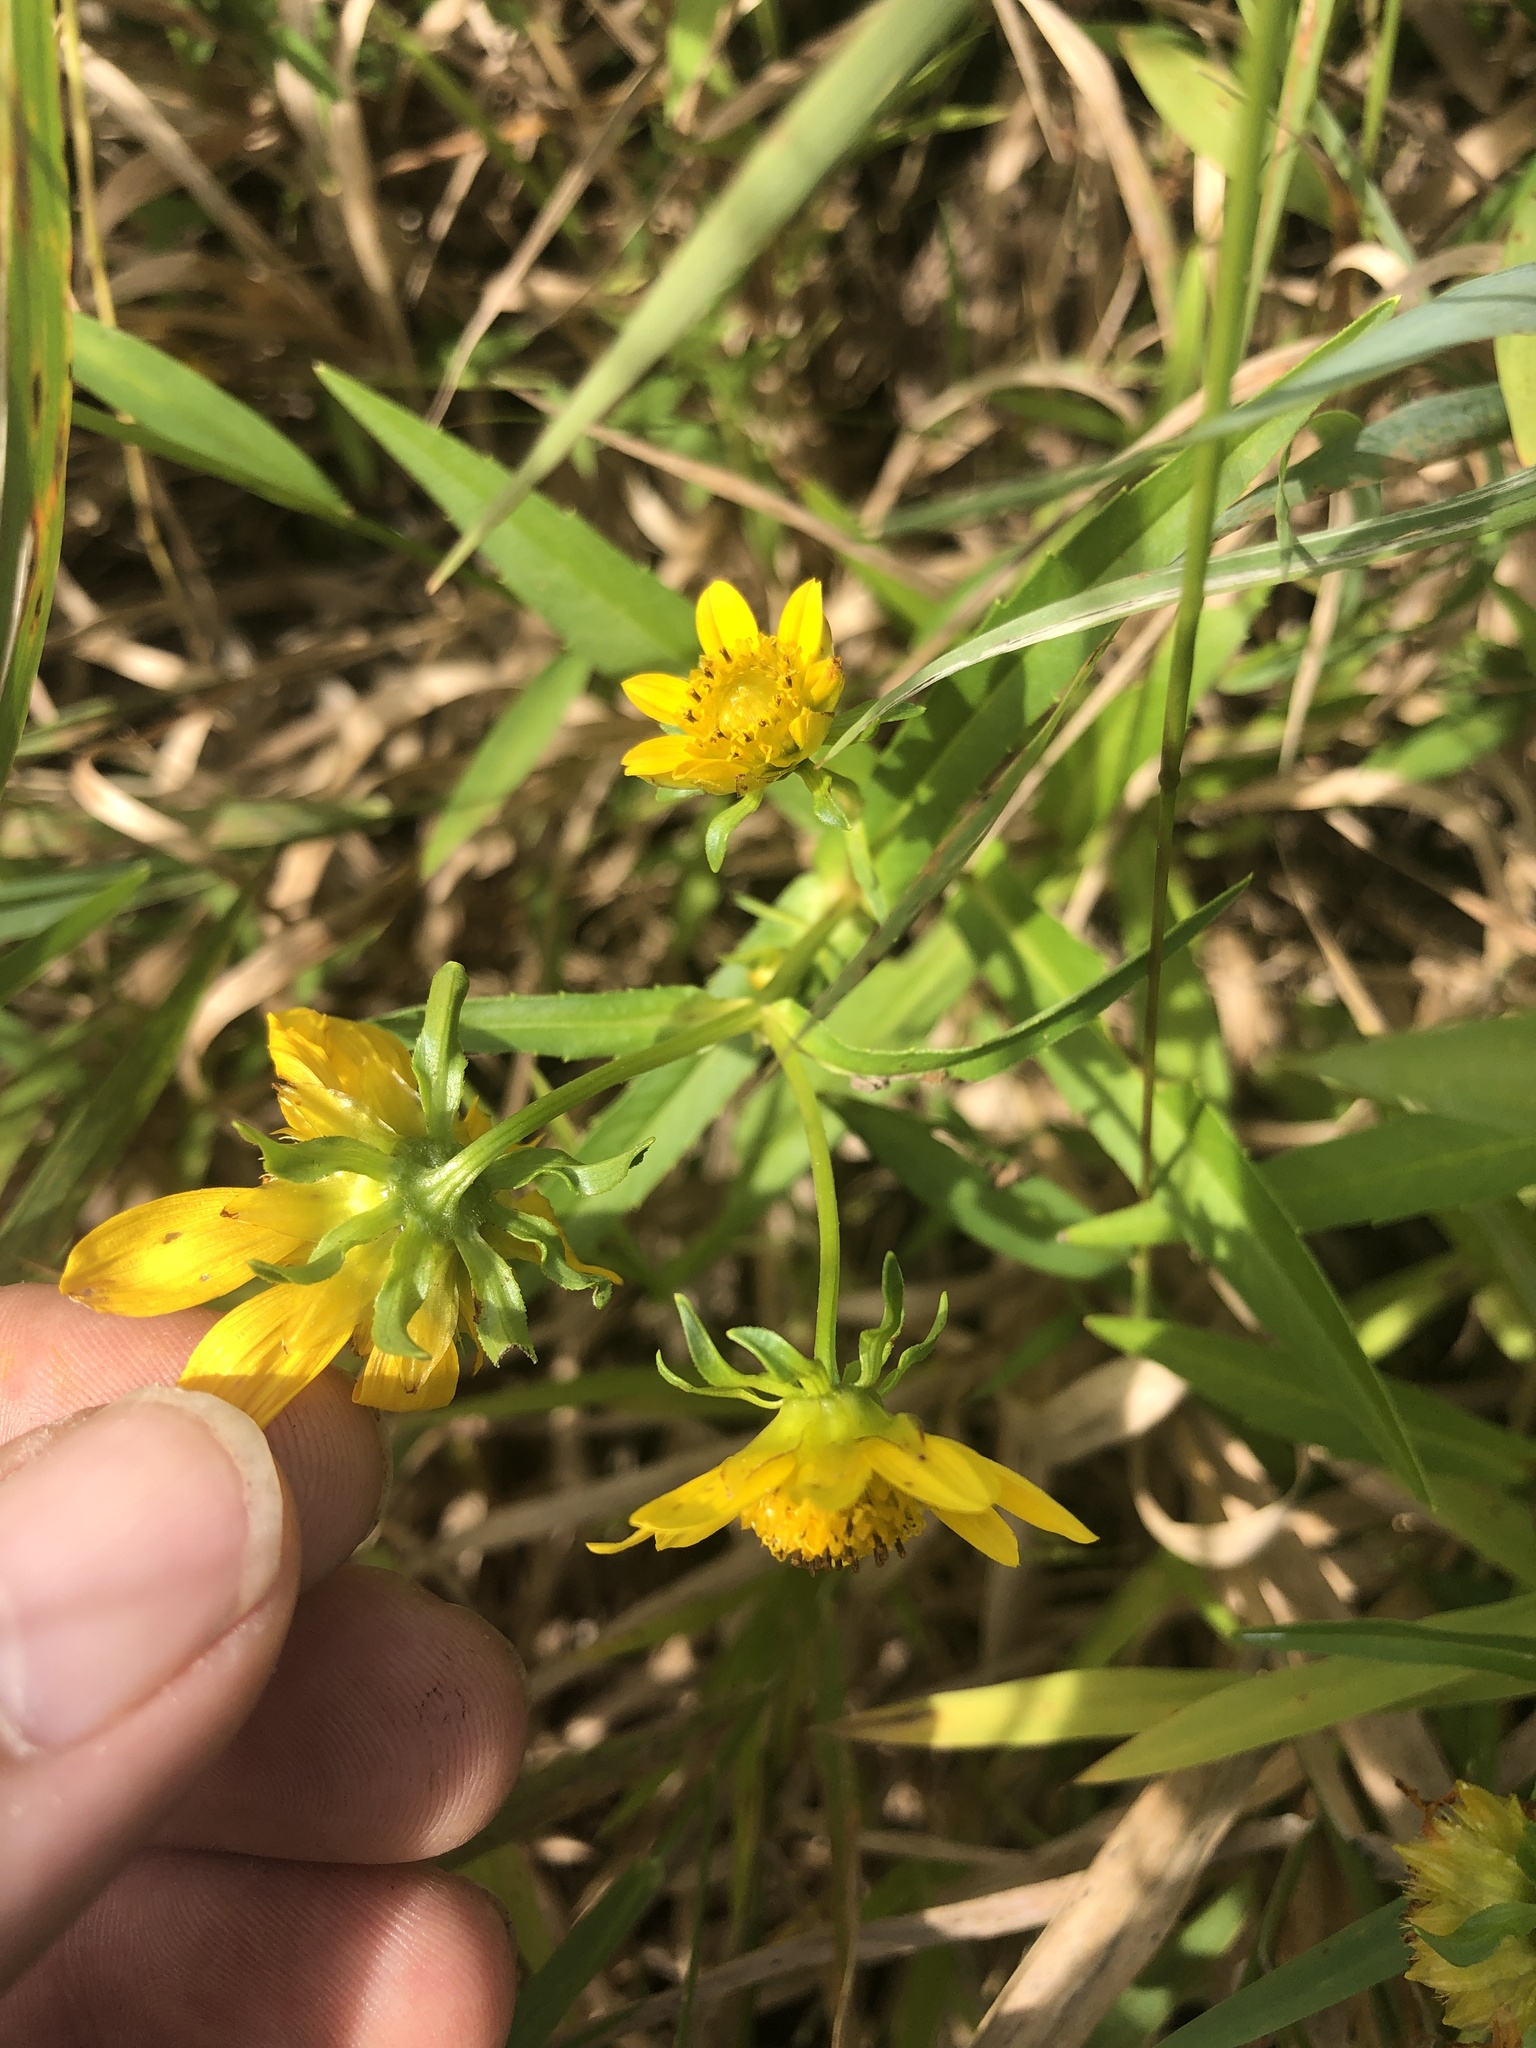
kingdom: Plantae
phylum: Tracheophyta
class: Magnoliopsida
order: Asterales
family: Asteraceae
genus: Bidens
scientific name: Bidens cernua
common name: Nodding bur-marigold
